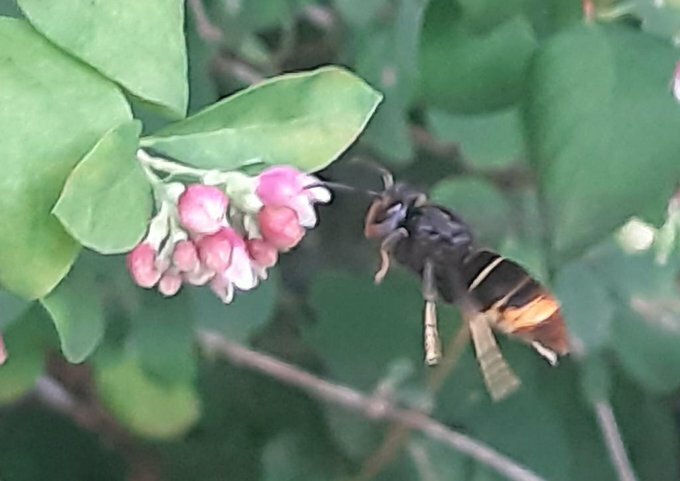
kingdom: Animalia
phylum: Arthropoda
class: Insecta
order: Hymenoptera
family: Vespidae
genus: Vespa
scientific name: Vespa velutina
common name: Asian hornet
